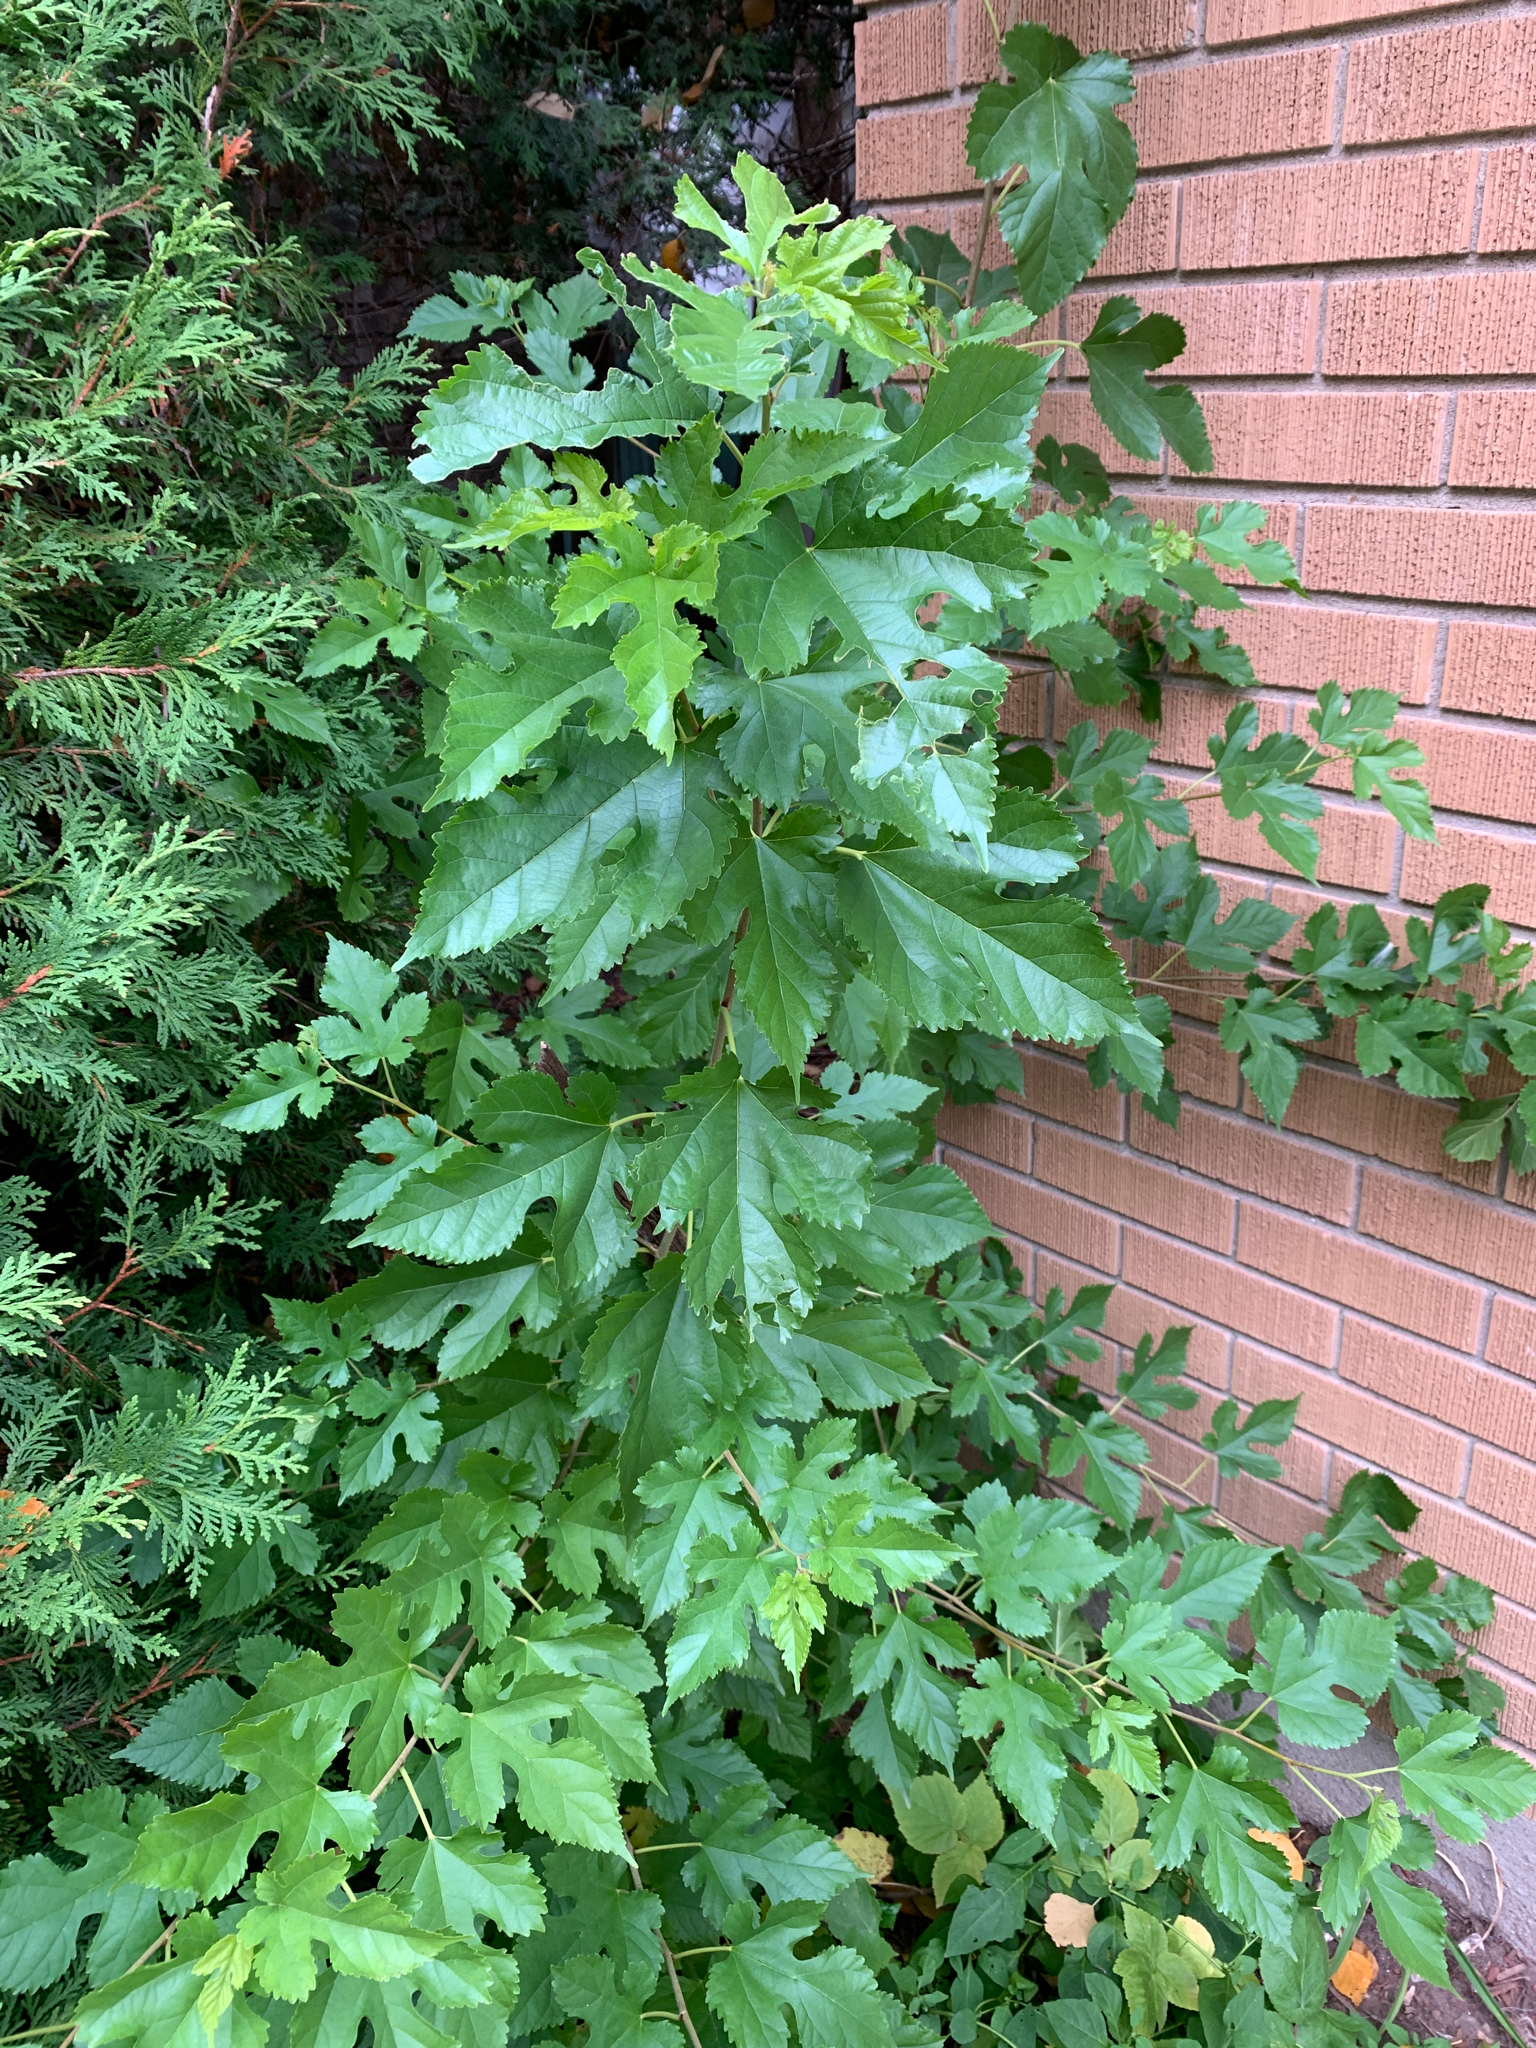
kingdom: Plantae
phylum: Tracheophyta
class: Magnoliopsida
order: Rosales
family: Moraceae
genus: Morus
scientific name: Morus alba
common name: White mulberry
